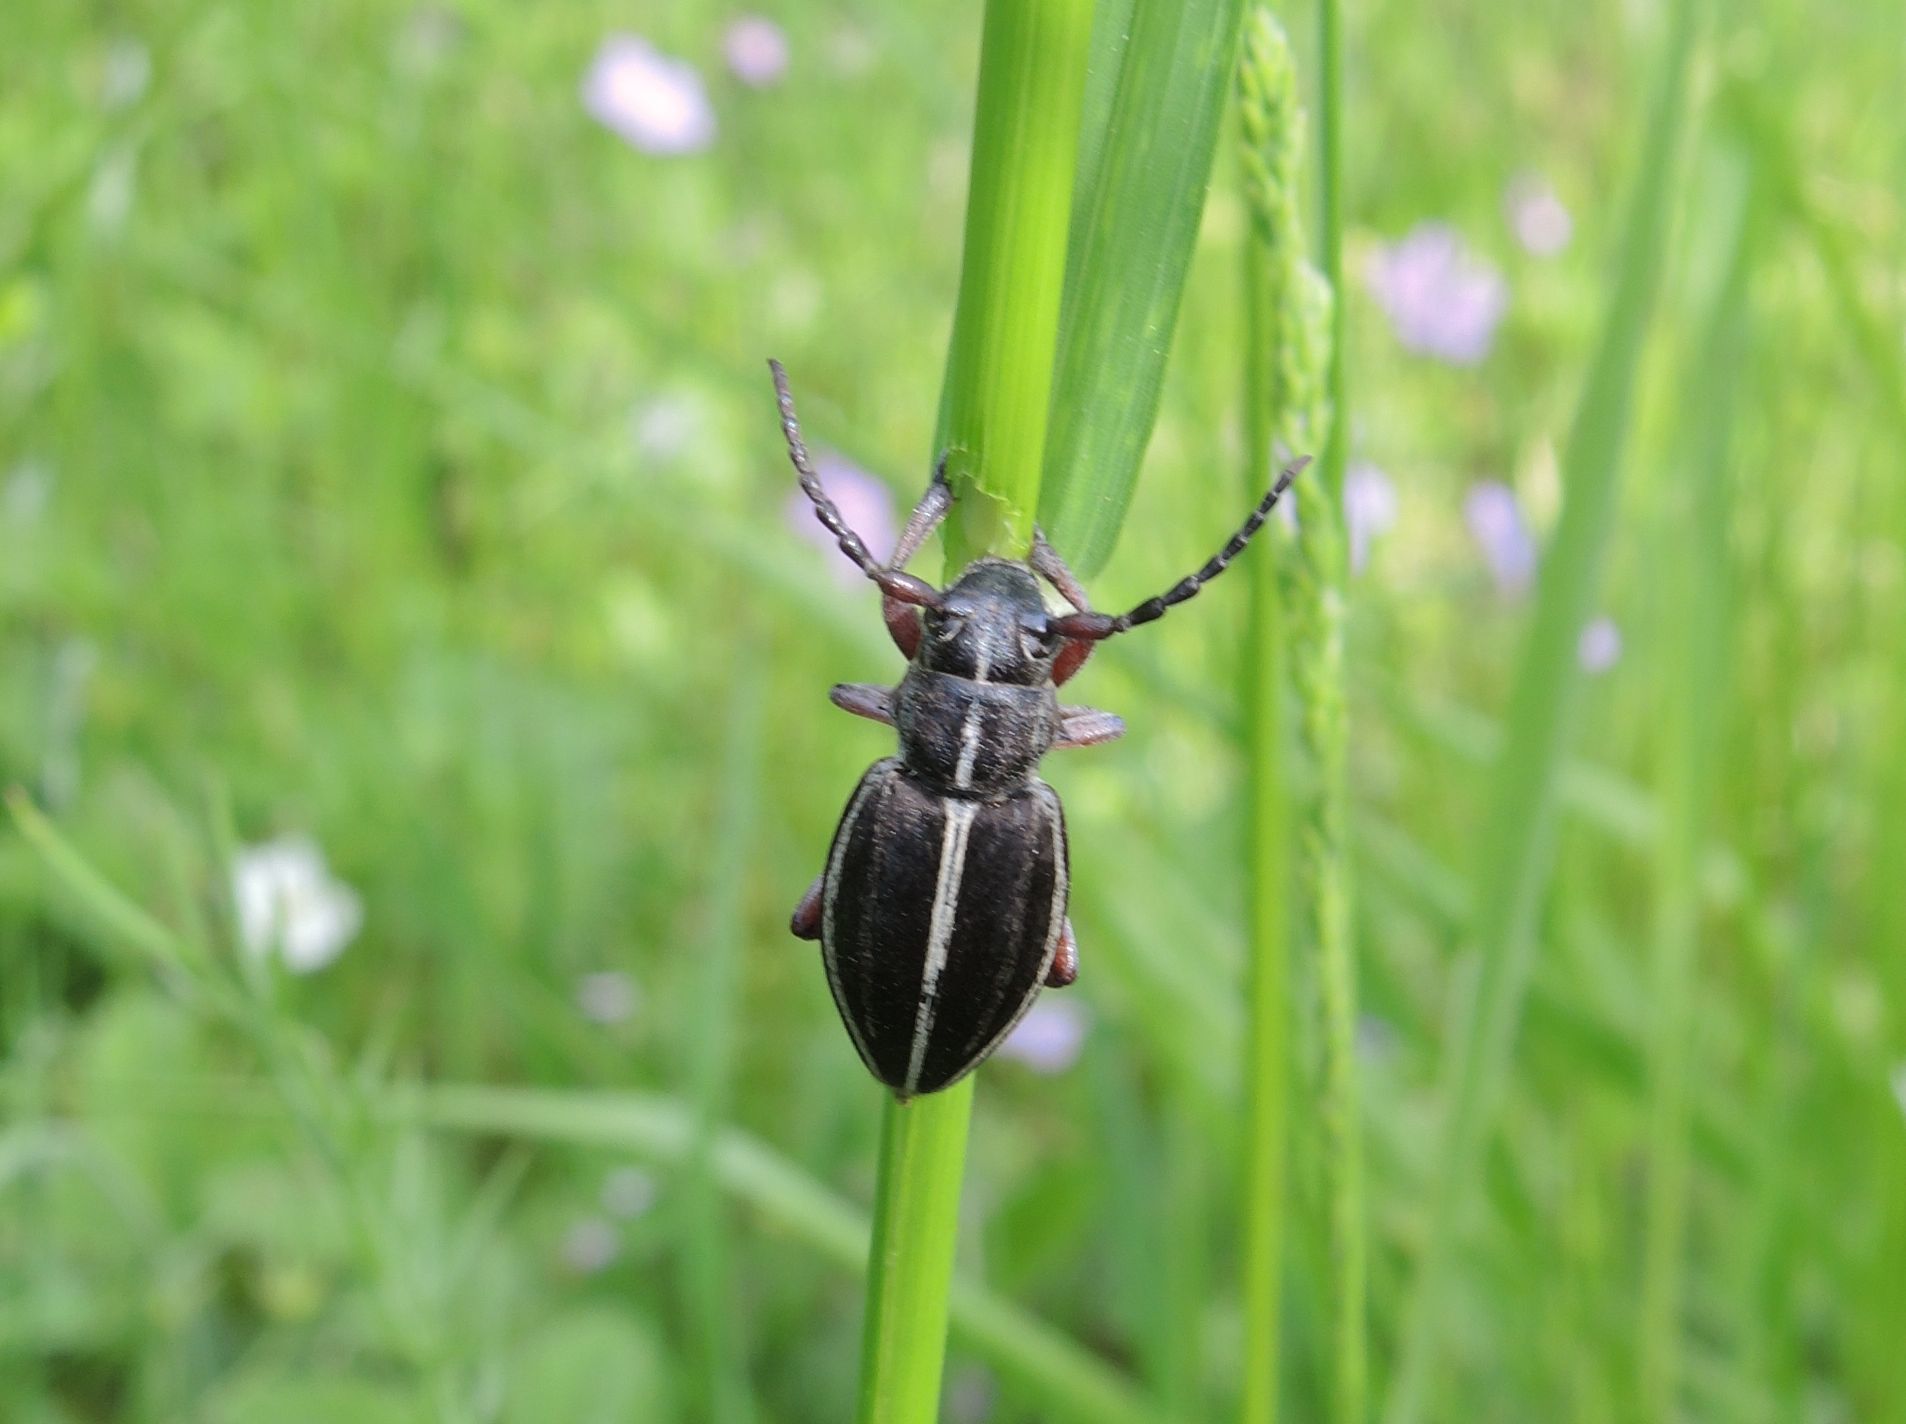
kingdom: Animalia
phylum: Arthropoda
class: Insecta
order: Coleoptera
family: Cerambycidae
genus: Dorcadion
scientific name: Dorcadion tauricum
